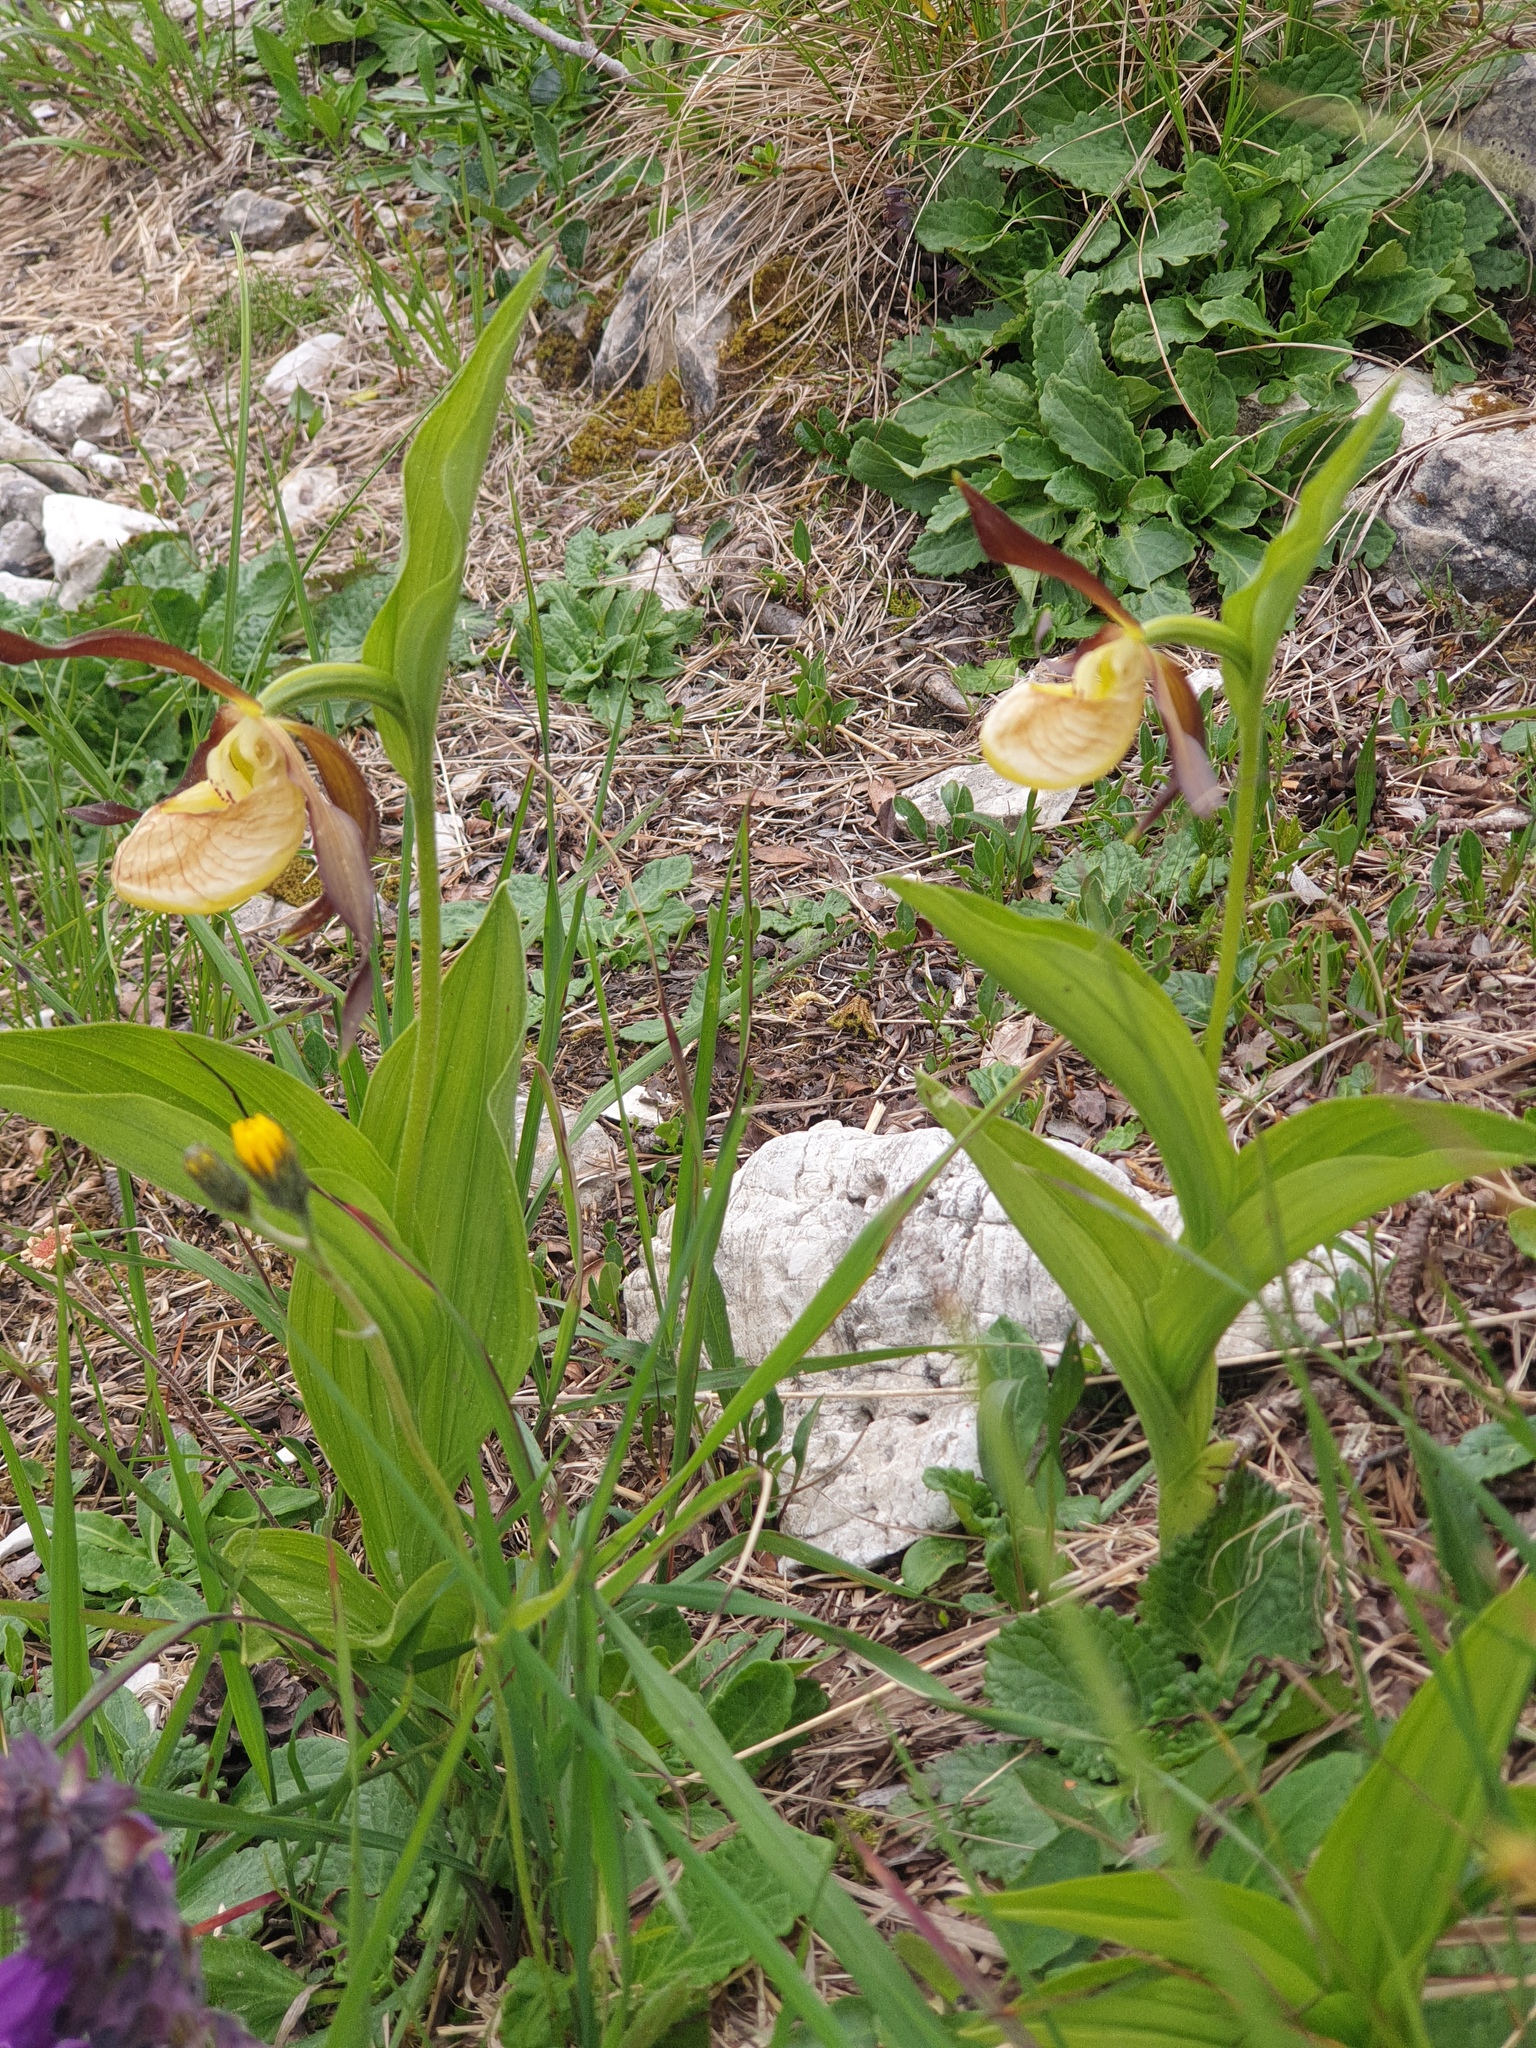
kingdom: Plantae
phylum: Tracheophyta
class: Liliopsida
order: Asparagales
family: Orchidaceae
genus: Cypripedium
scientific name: Cypripedium calceolus
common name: Lady's-slipper
